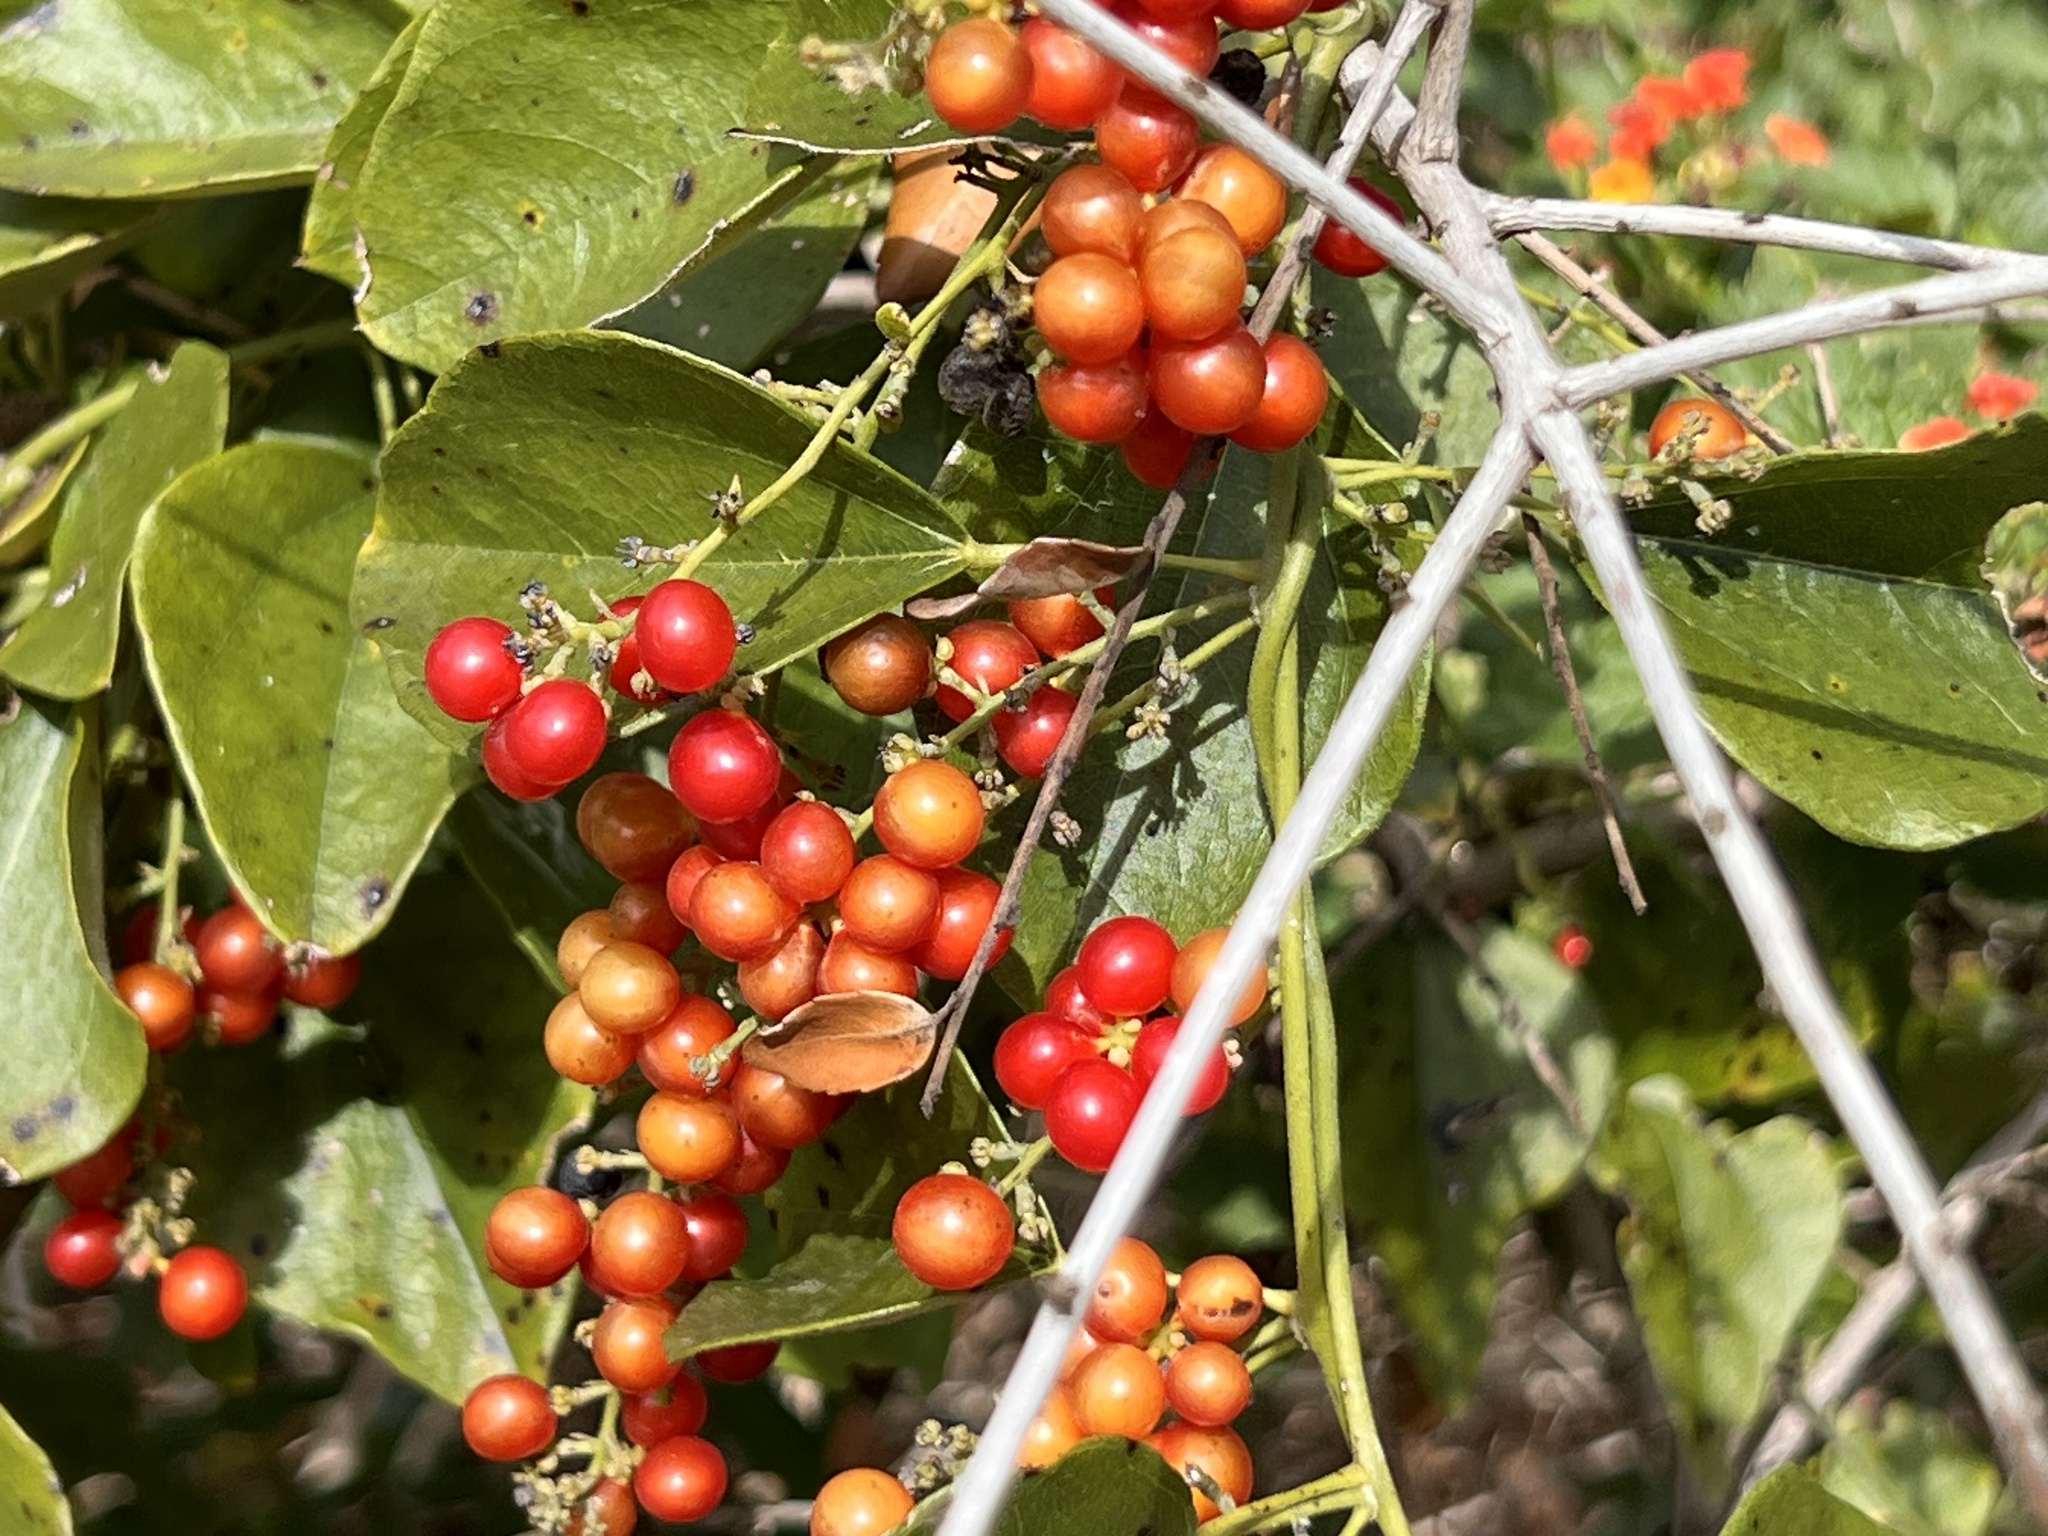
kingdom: Plantae
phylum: Tracheophyta
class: Magnoliopsida
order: Ranunculales
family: Menispermaceae
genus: Cocculus
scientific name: Cocculus carolinus
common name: Carolina moonseed
